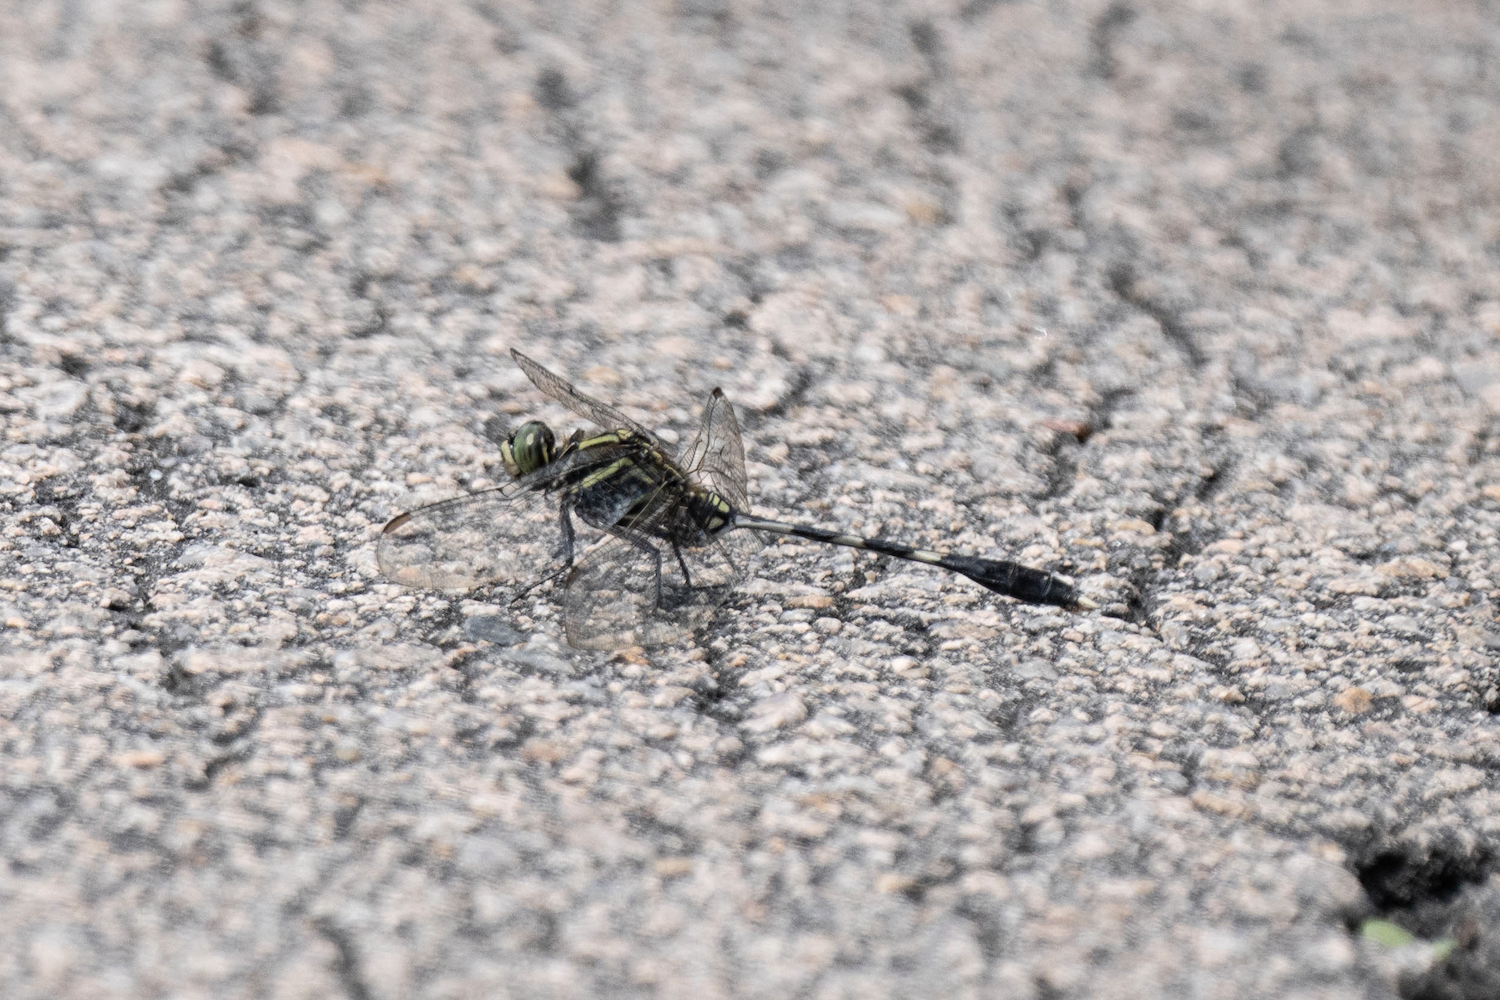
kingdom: Animalia
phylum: Arthropoda
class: Insecta
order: Odonata
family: Libellulidae
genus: Orthetrum
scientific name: Orthetrum sabina
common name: Slender skimmer
